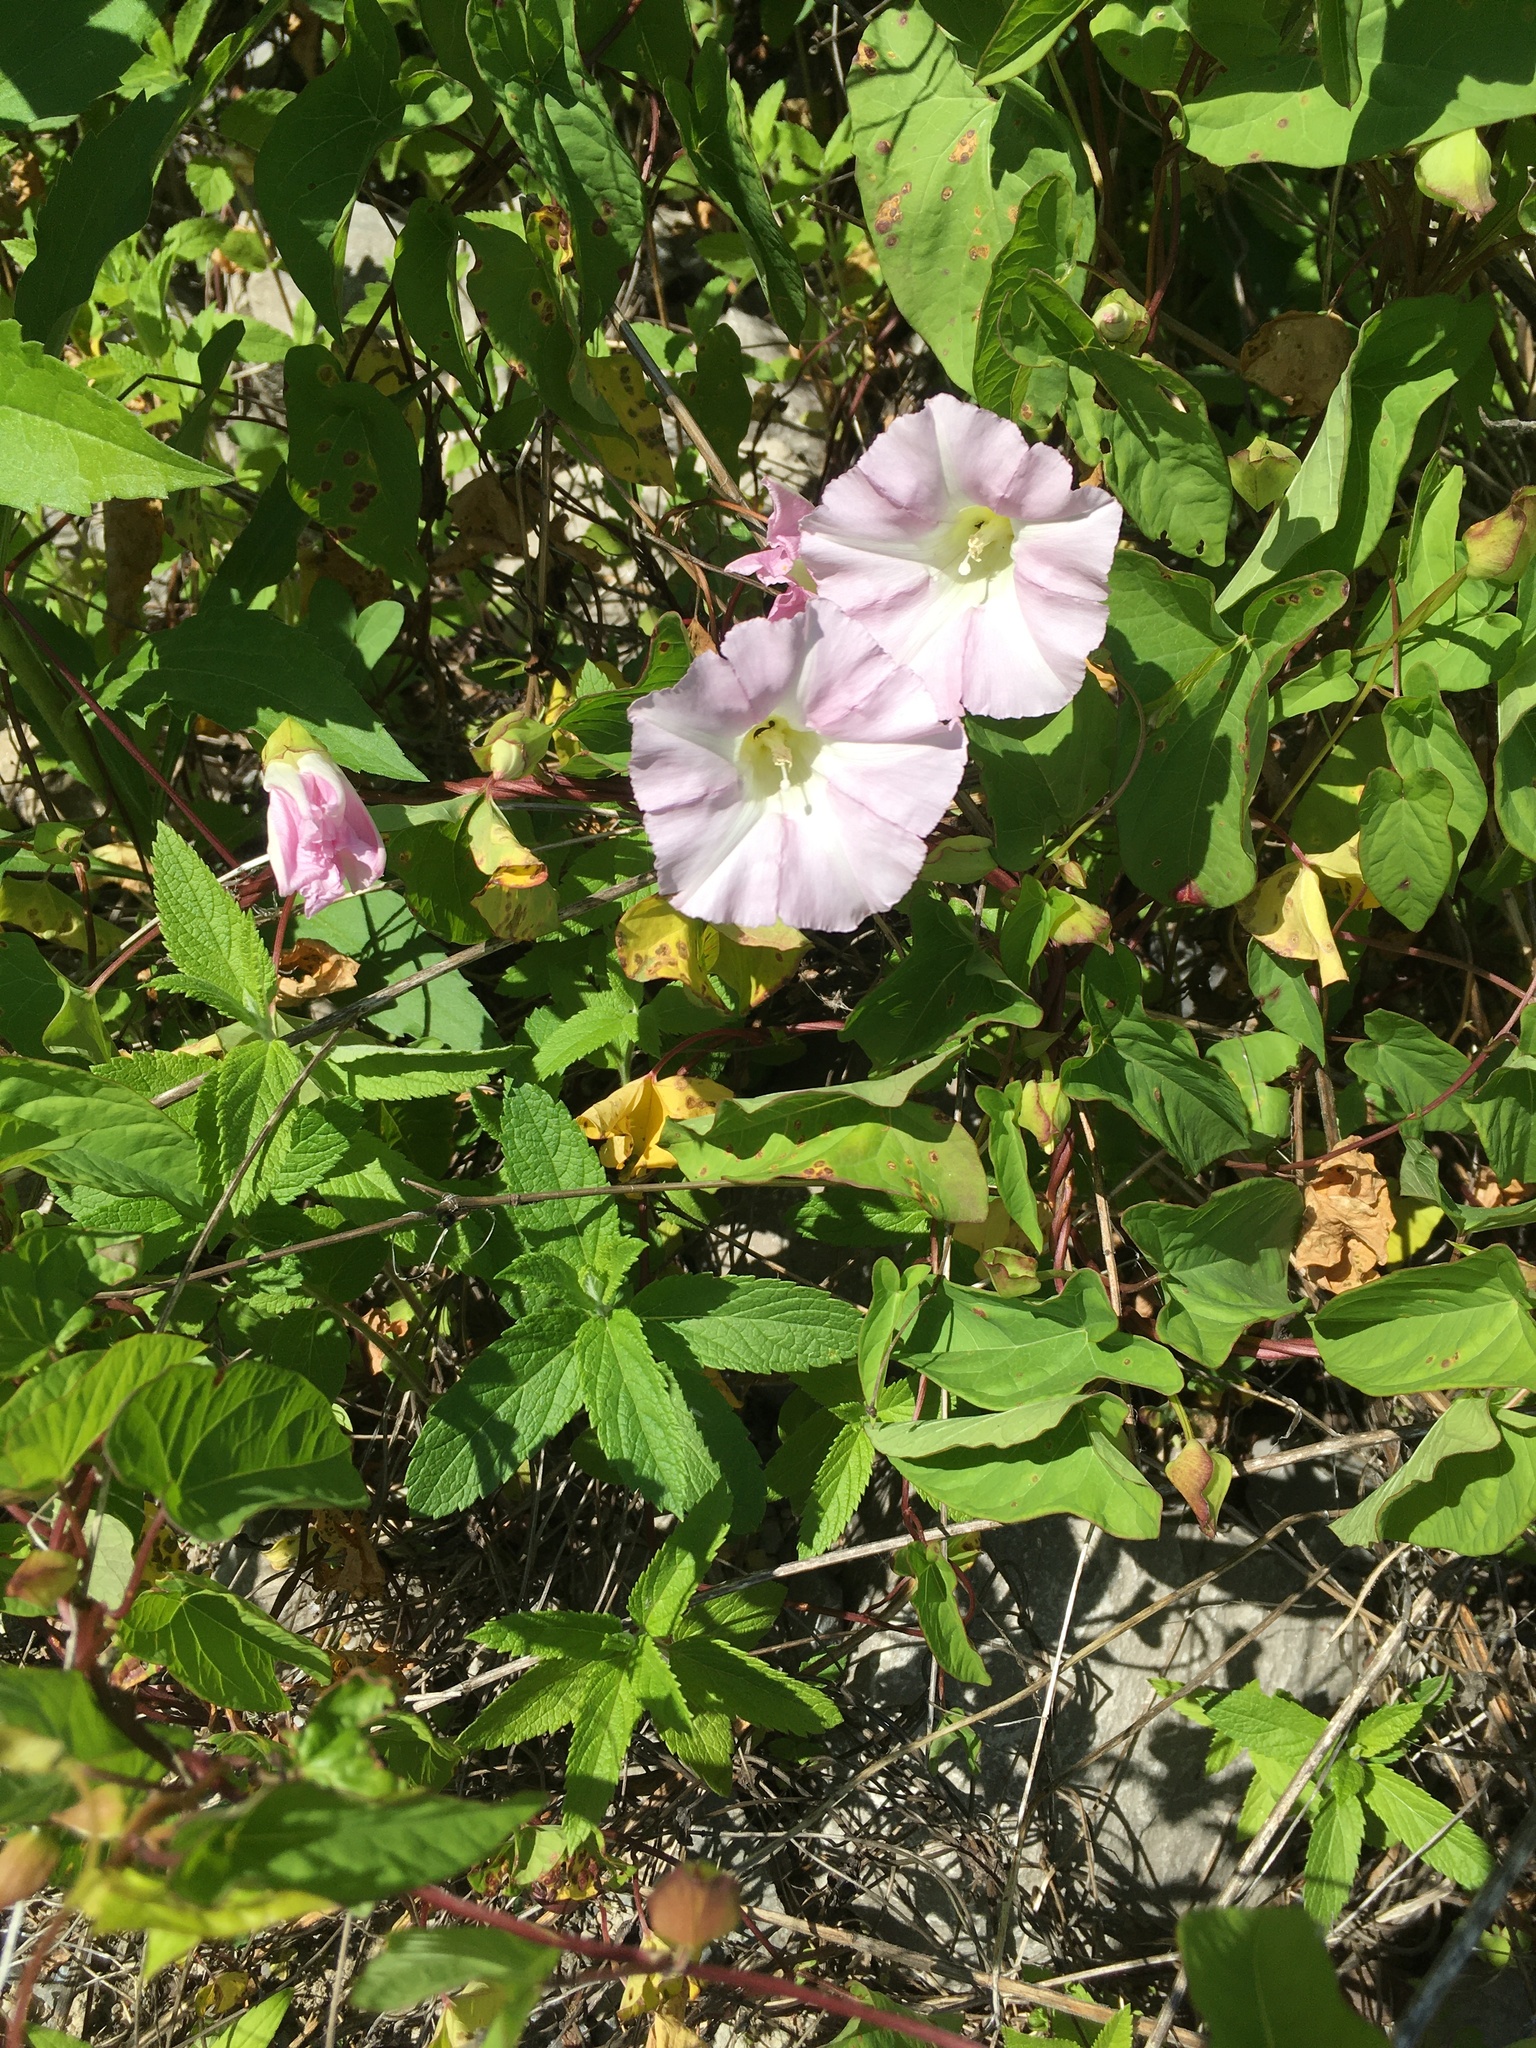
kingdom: Plantae
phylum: Tracheophyta
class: Magnoliopsida
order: Solanales
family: Convolvulaceae
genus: Calystegia
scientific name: Calystegia sepium
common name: Hedge bindweed
